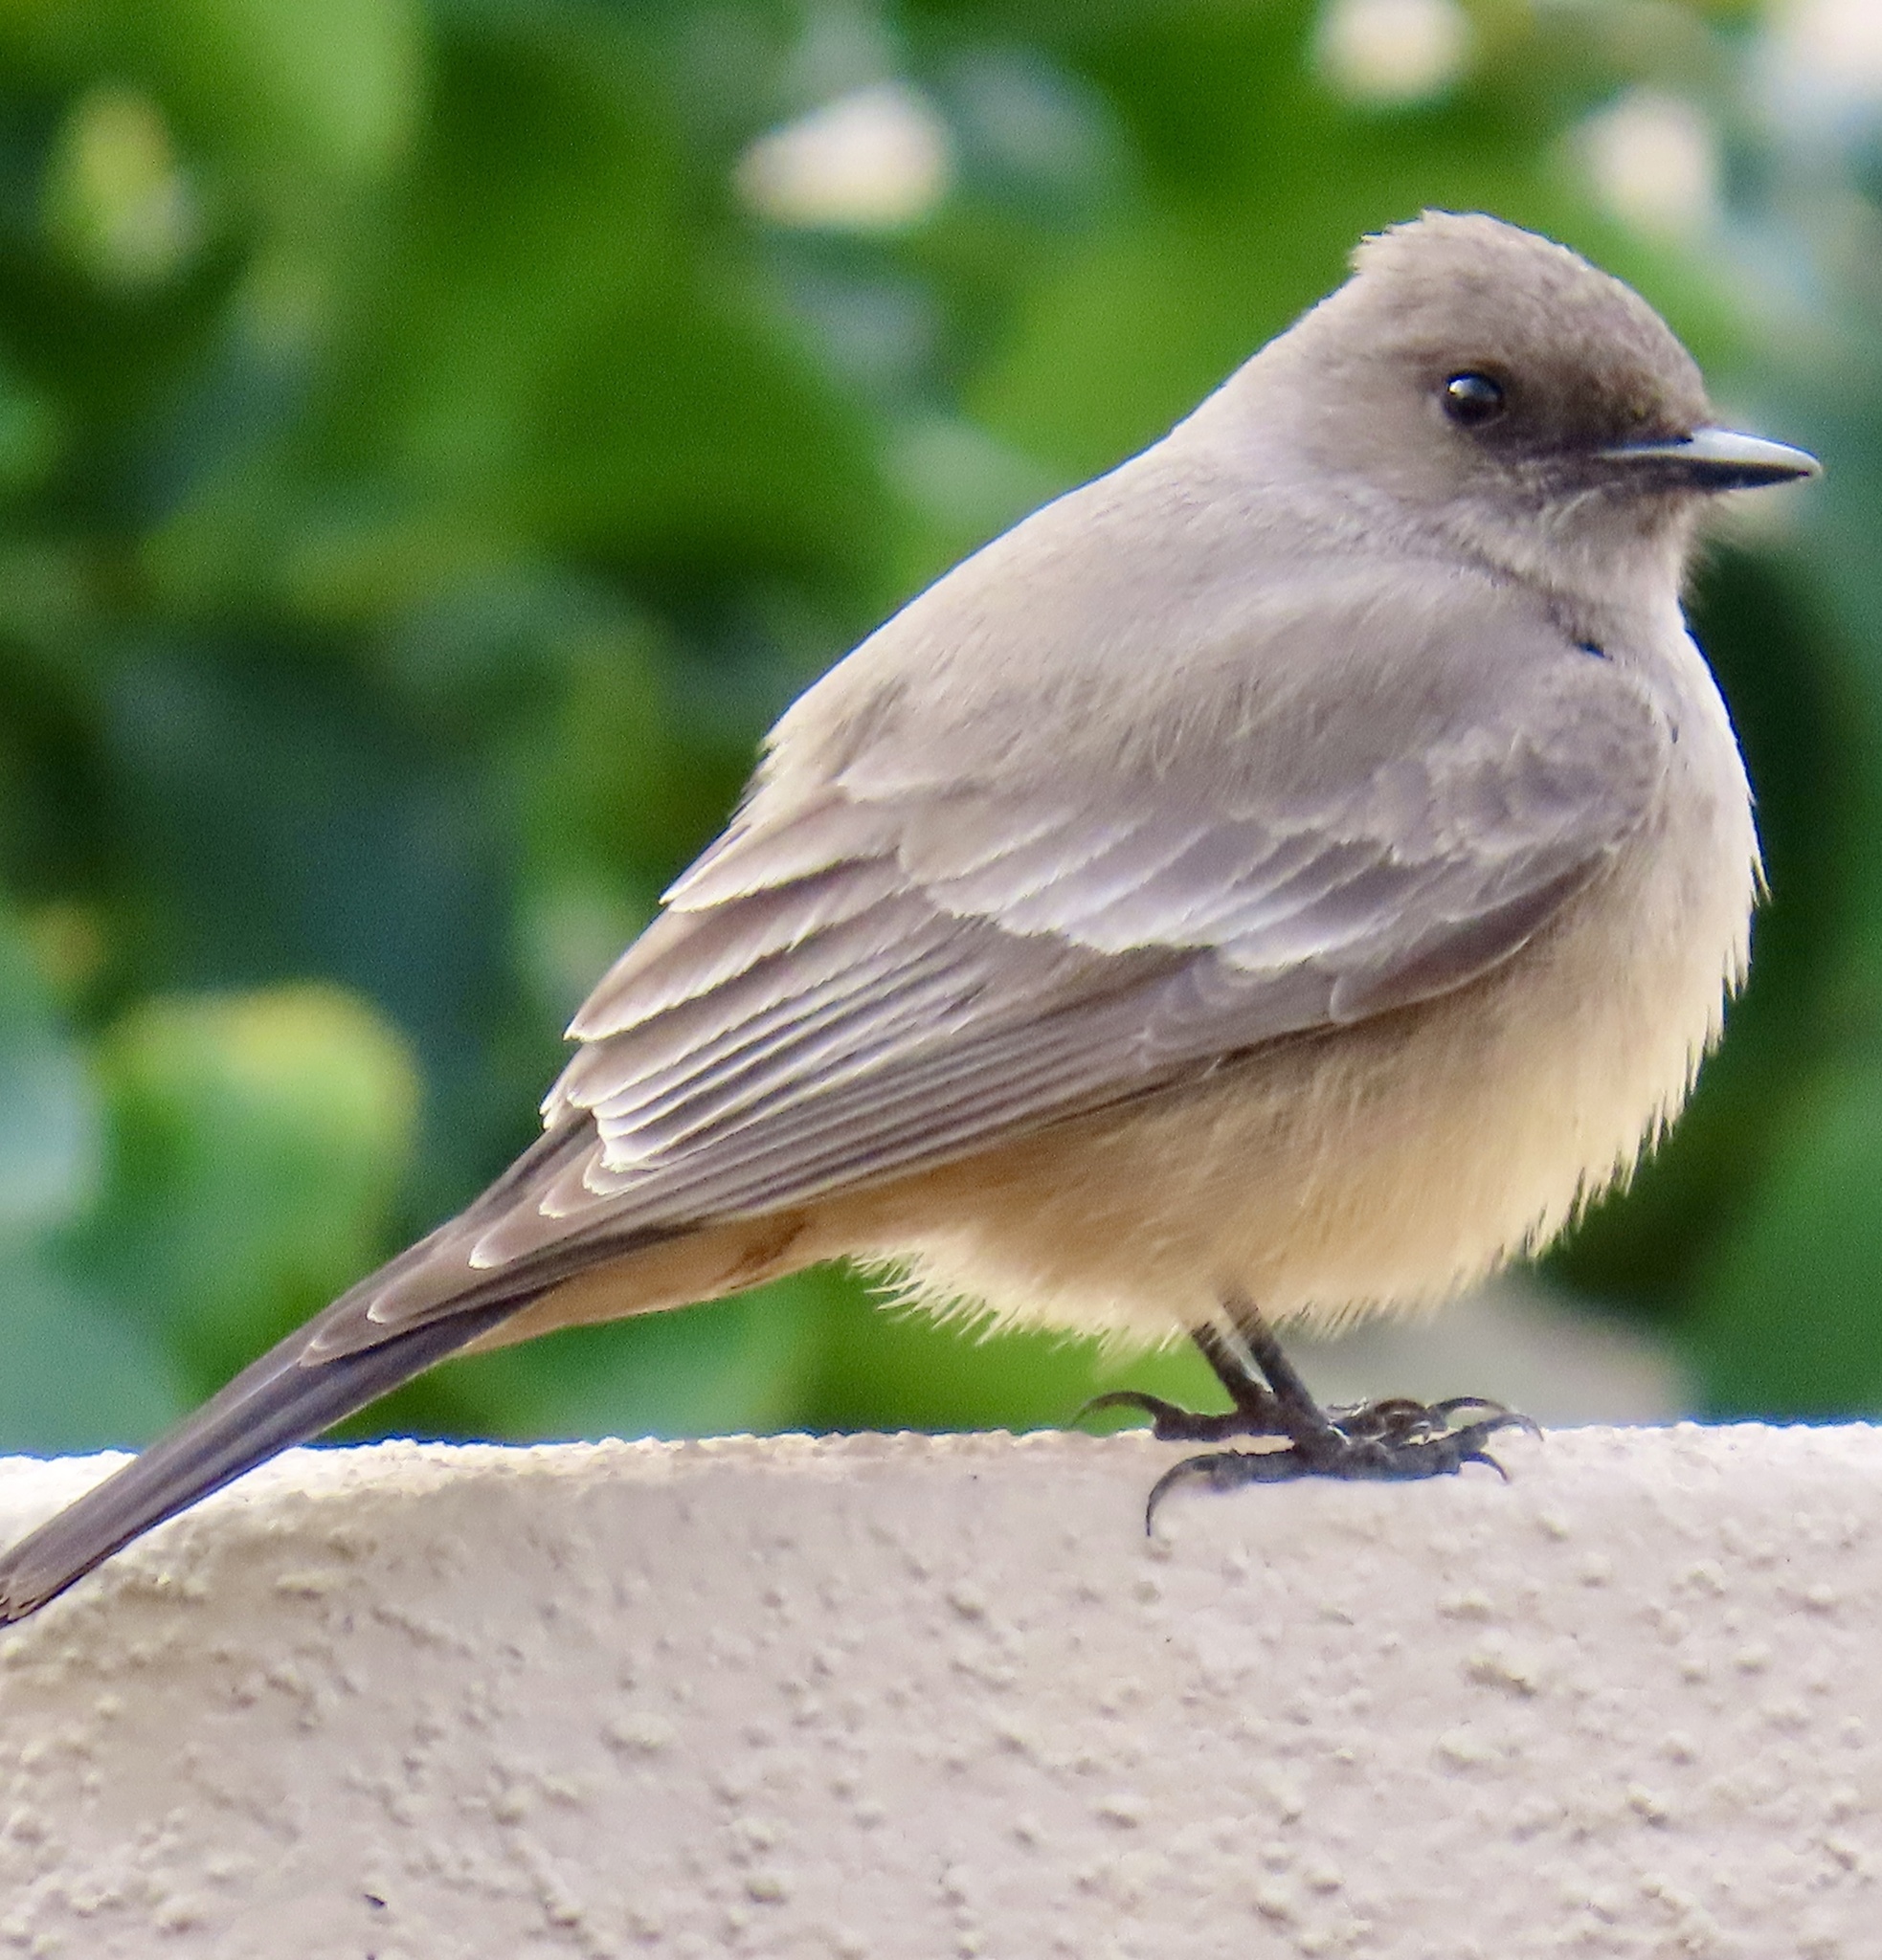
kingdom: Animalia
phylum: Chordata
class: Aves
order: Passeriformes
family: Tyrannidae
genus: Sayornis
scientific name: Sayornis saya
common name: Say's phoebe
